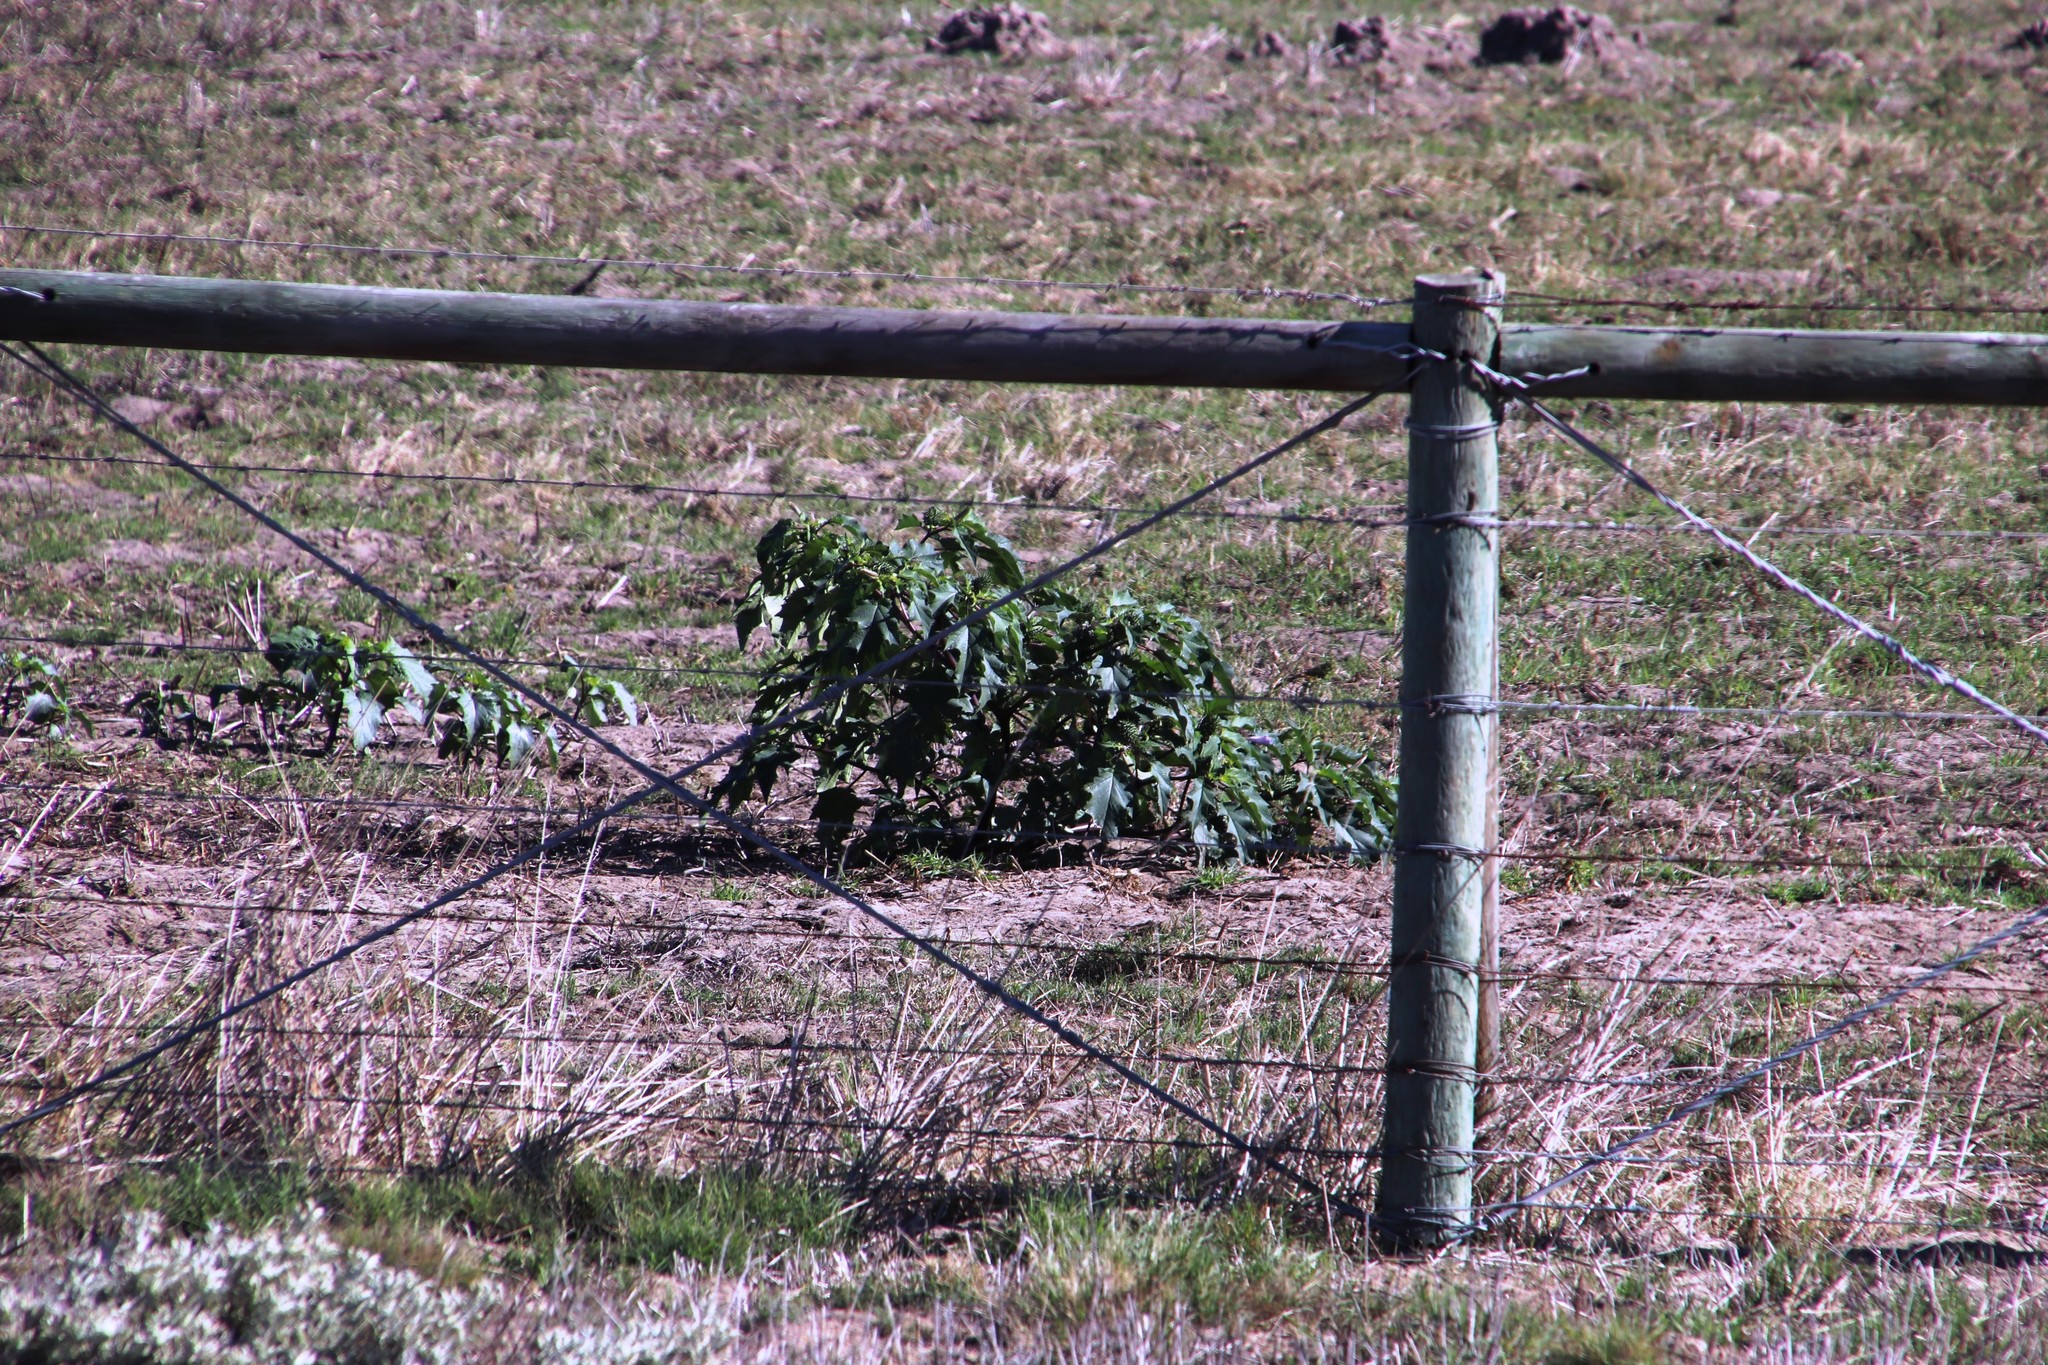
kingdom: Plantae
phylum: Tracheophyta
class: Magnoliopsida
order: Solanales
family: Solanaceae
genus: Datura
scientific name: Datura stramonium
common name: Thorn-apple
